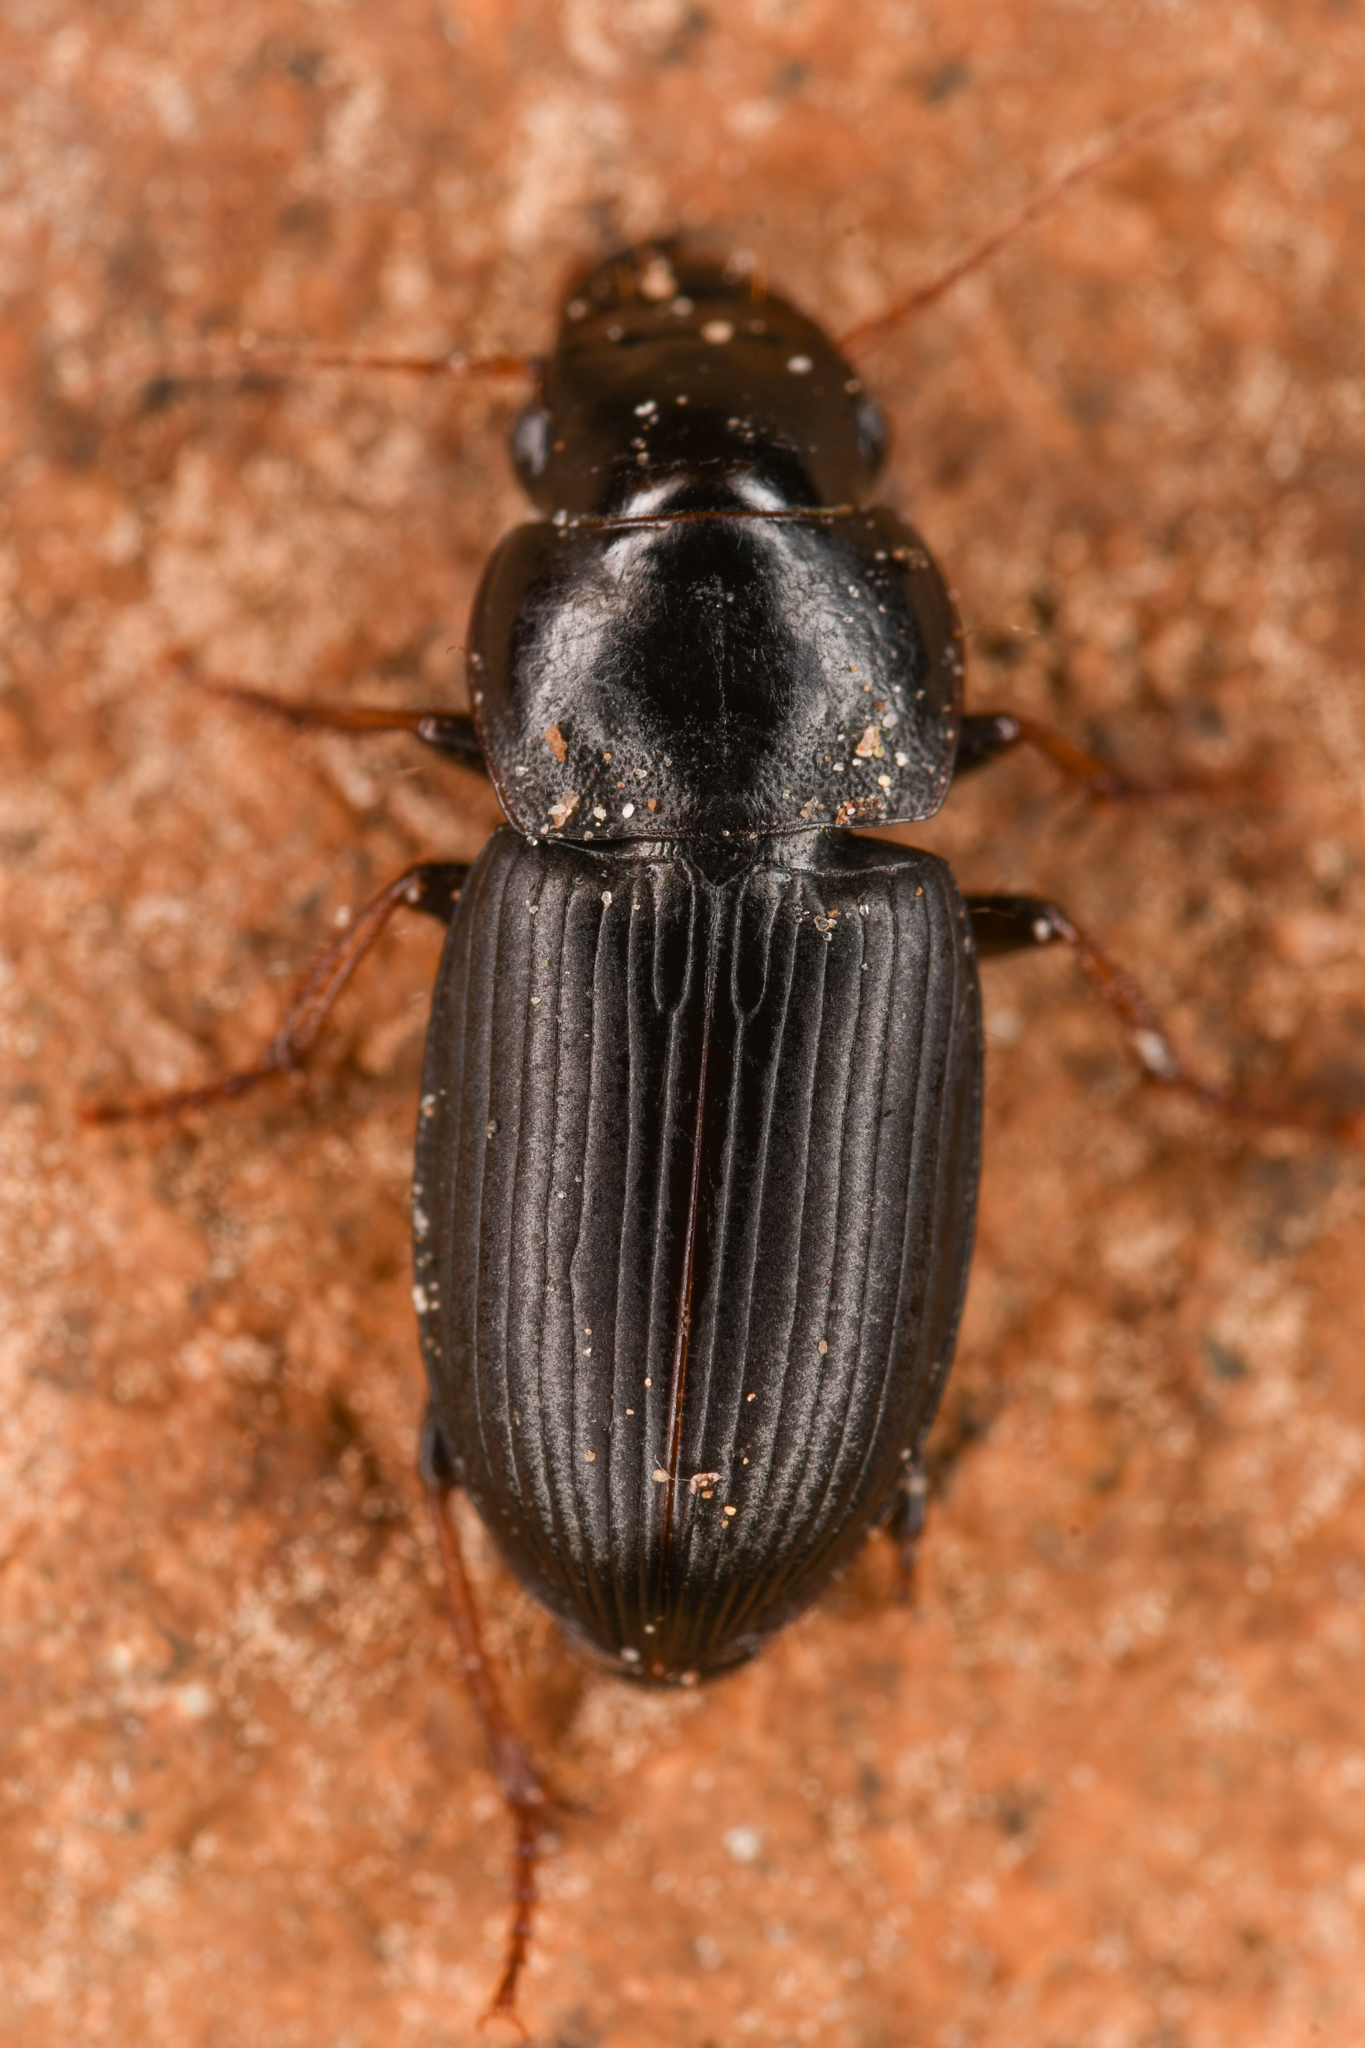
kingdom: Animalia
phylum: Arthropoda
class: Insecta
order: Coleoptera
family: Carabidae
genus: Harpalus
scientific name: Harpalus solitaris
